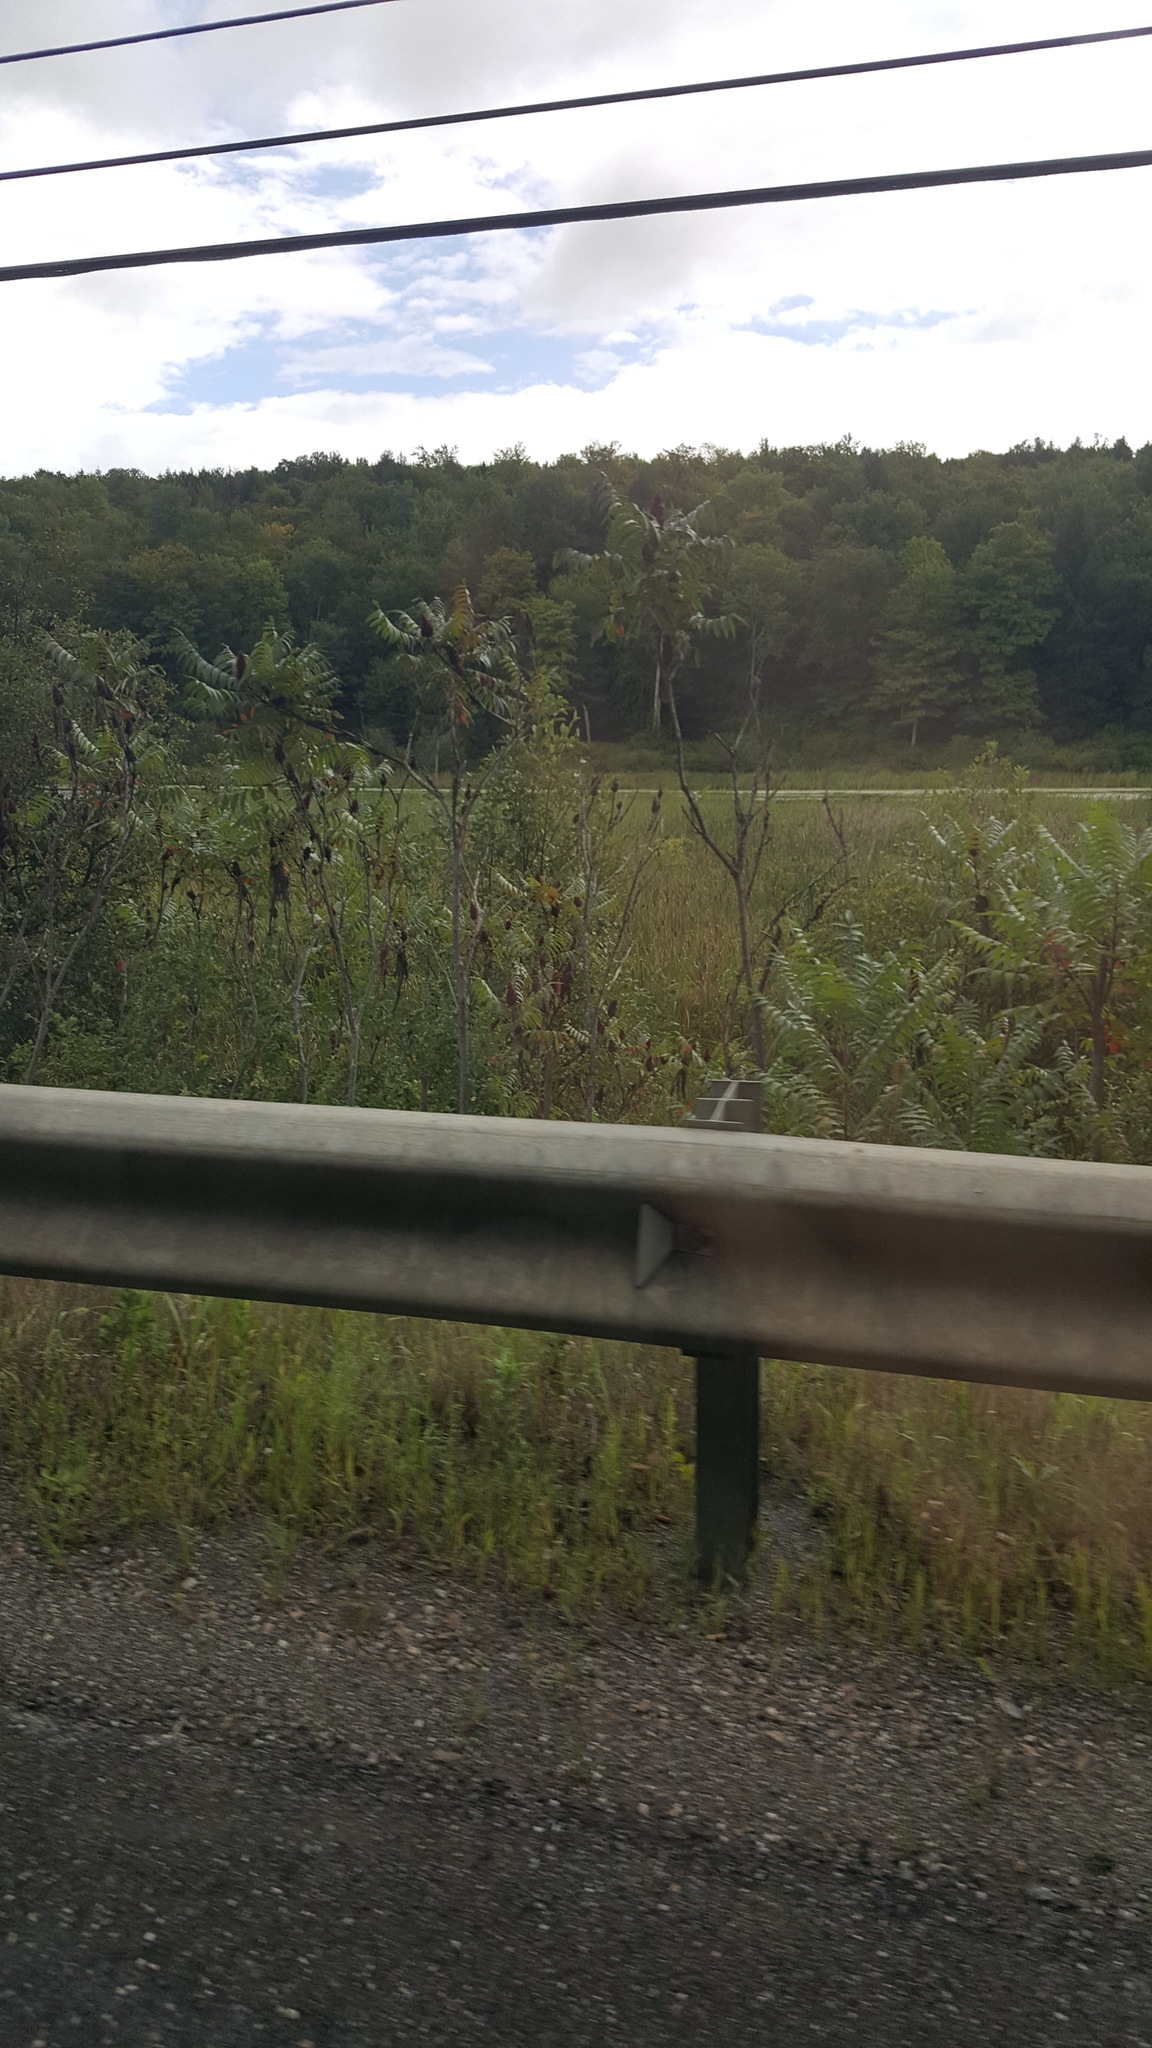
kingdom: Plantae
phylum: Tracheophyta
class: Magnoliopsida
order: Sapindales
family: Anacardiaceae
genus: Rhus
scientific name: Rhus typhina
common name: Staghorn sumac
